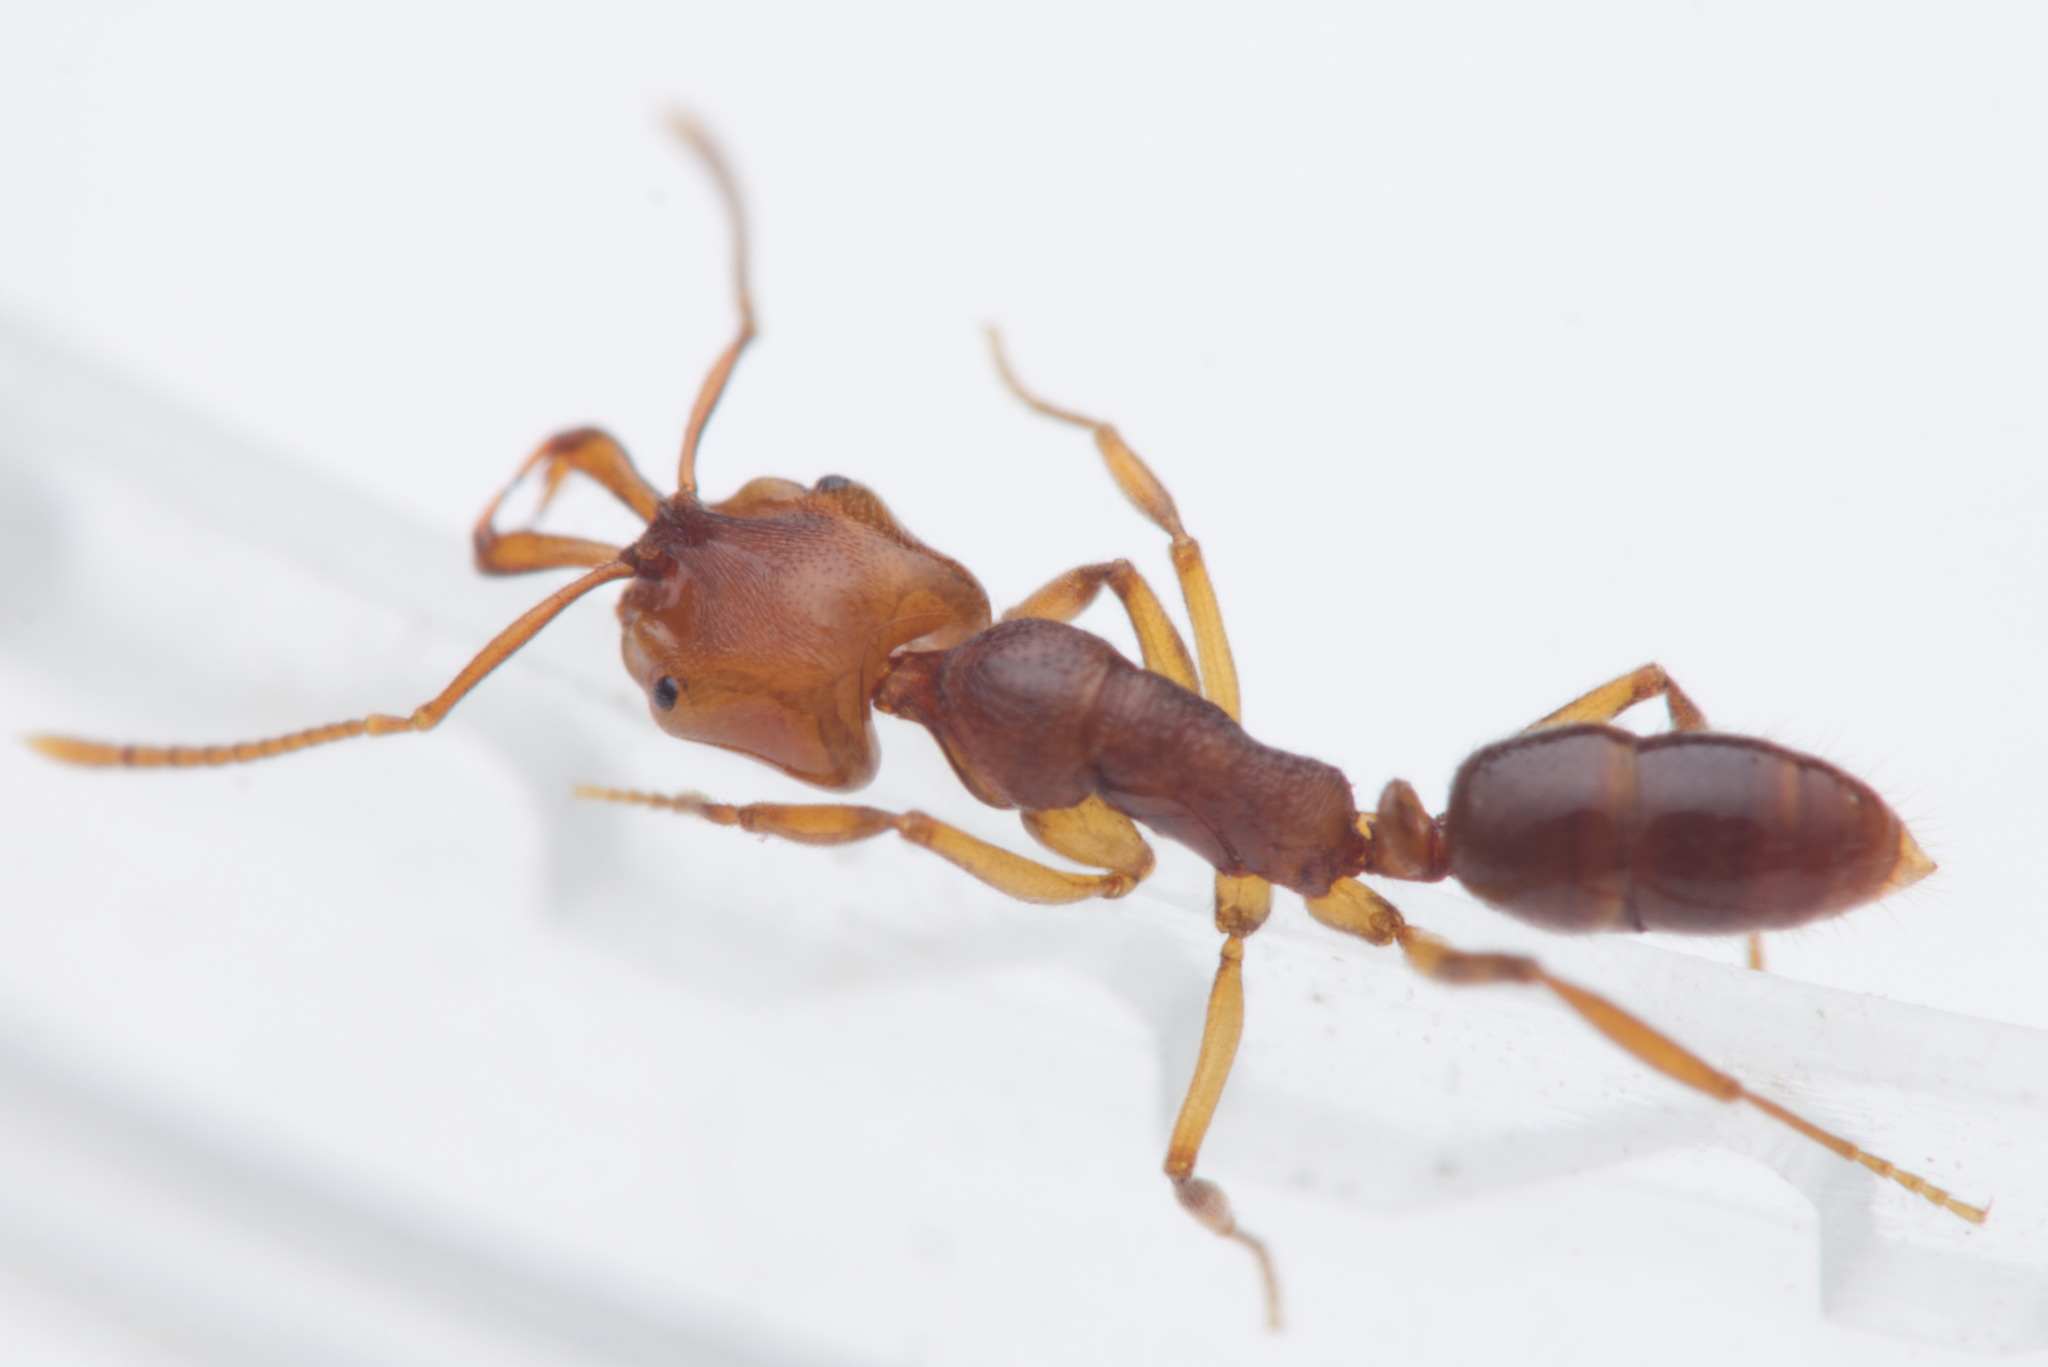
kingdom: Animalia
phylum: Arthropoda
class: Insecta
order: Hymenoptera
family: Formicidae
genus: Anochetus
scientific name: Anochetus graeffei
